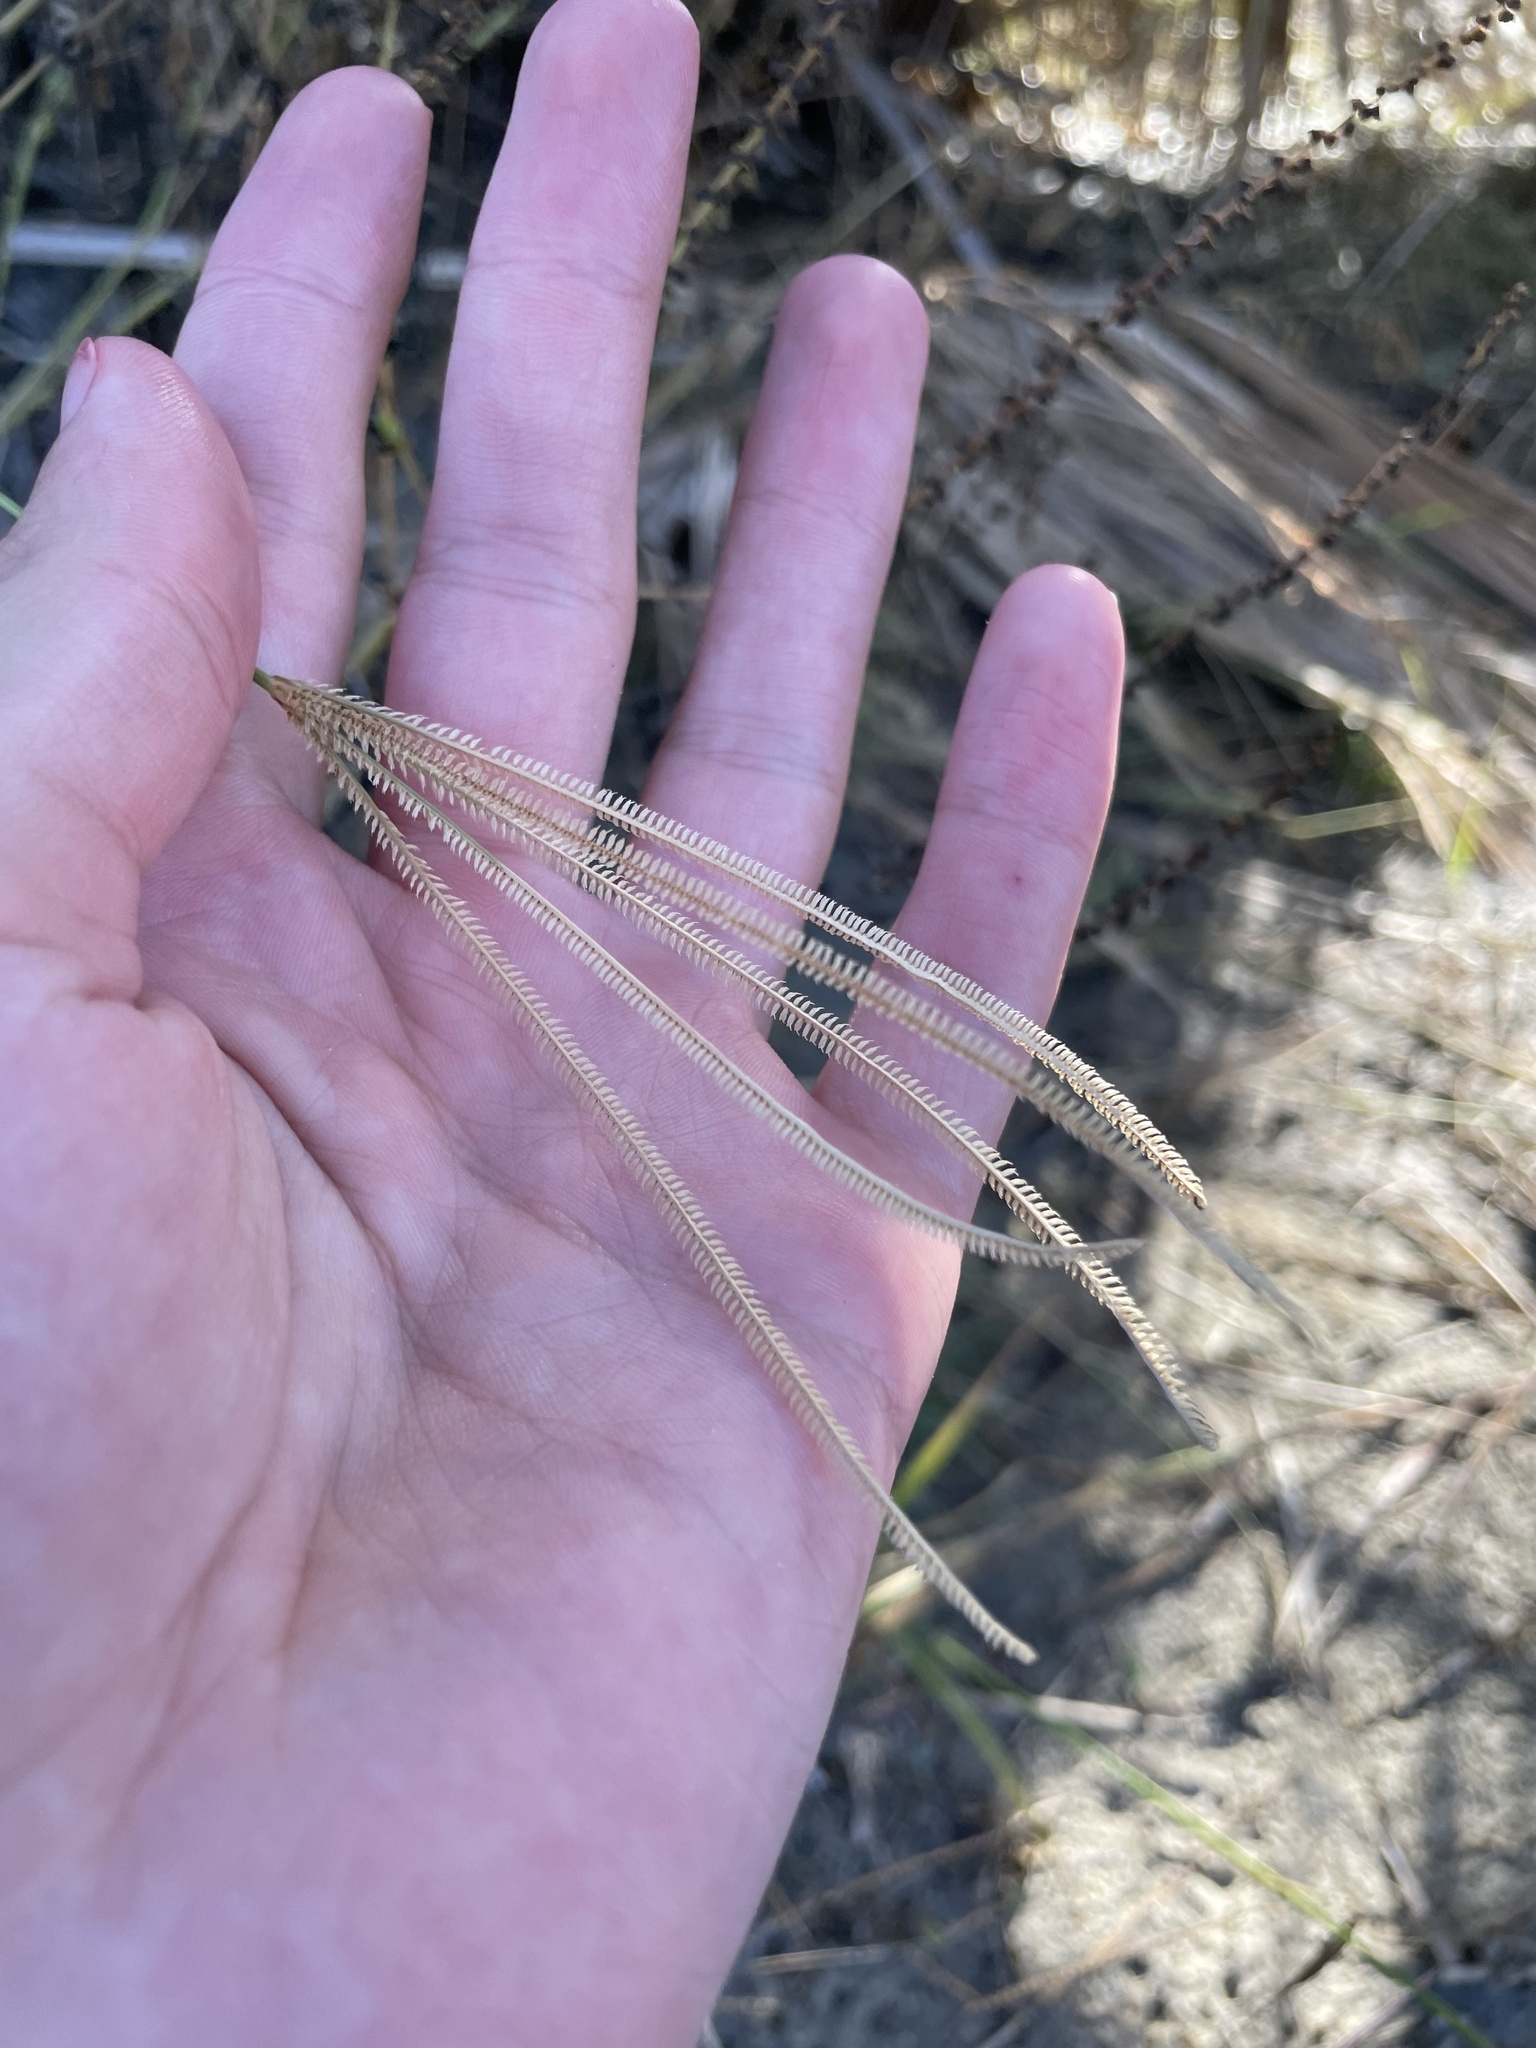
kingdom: Plantae
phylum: Tracheophyta
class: Liliopsida
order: Poales
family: Poaceae
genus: Eustachys
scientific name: Eustachys petraea
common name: Pinewoods fingergrass
